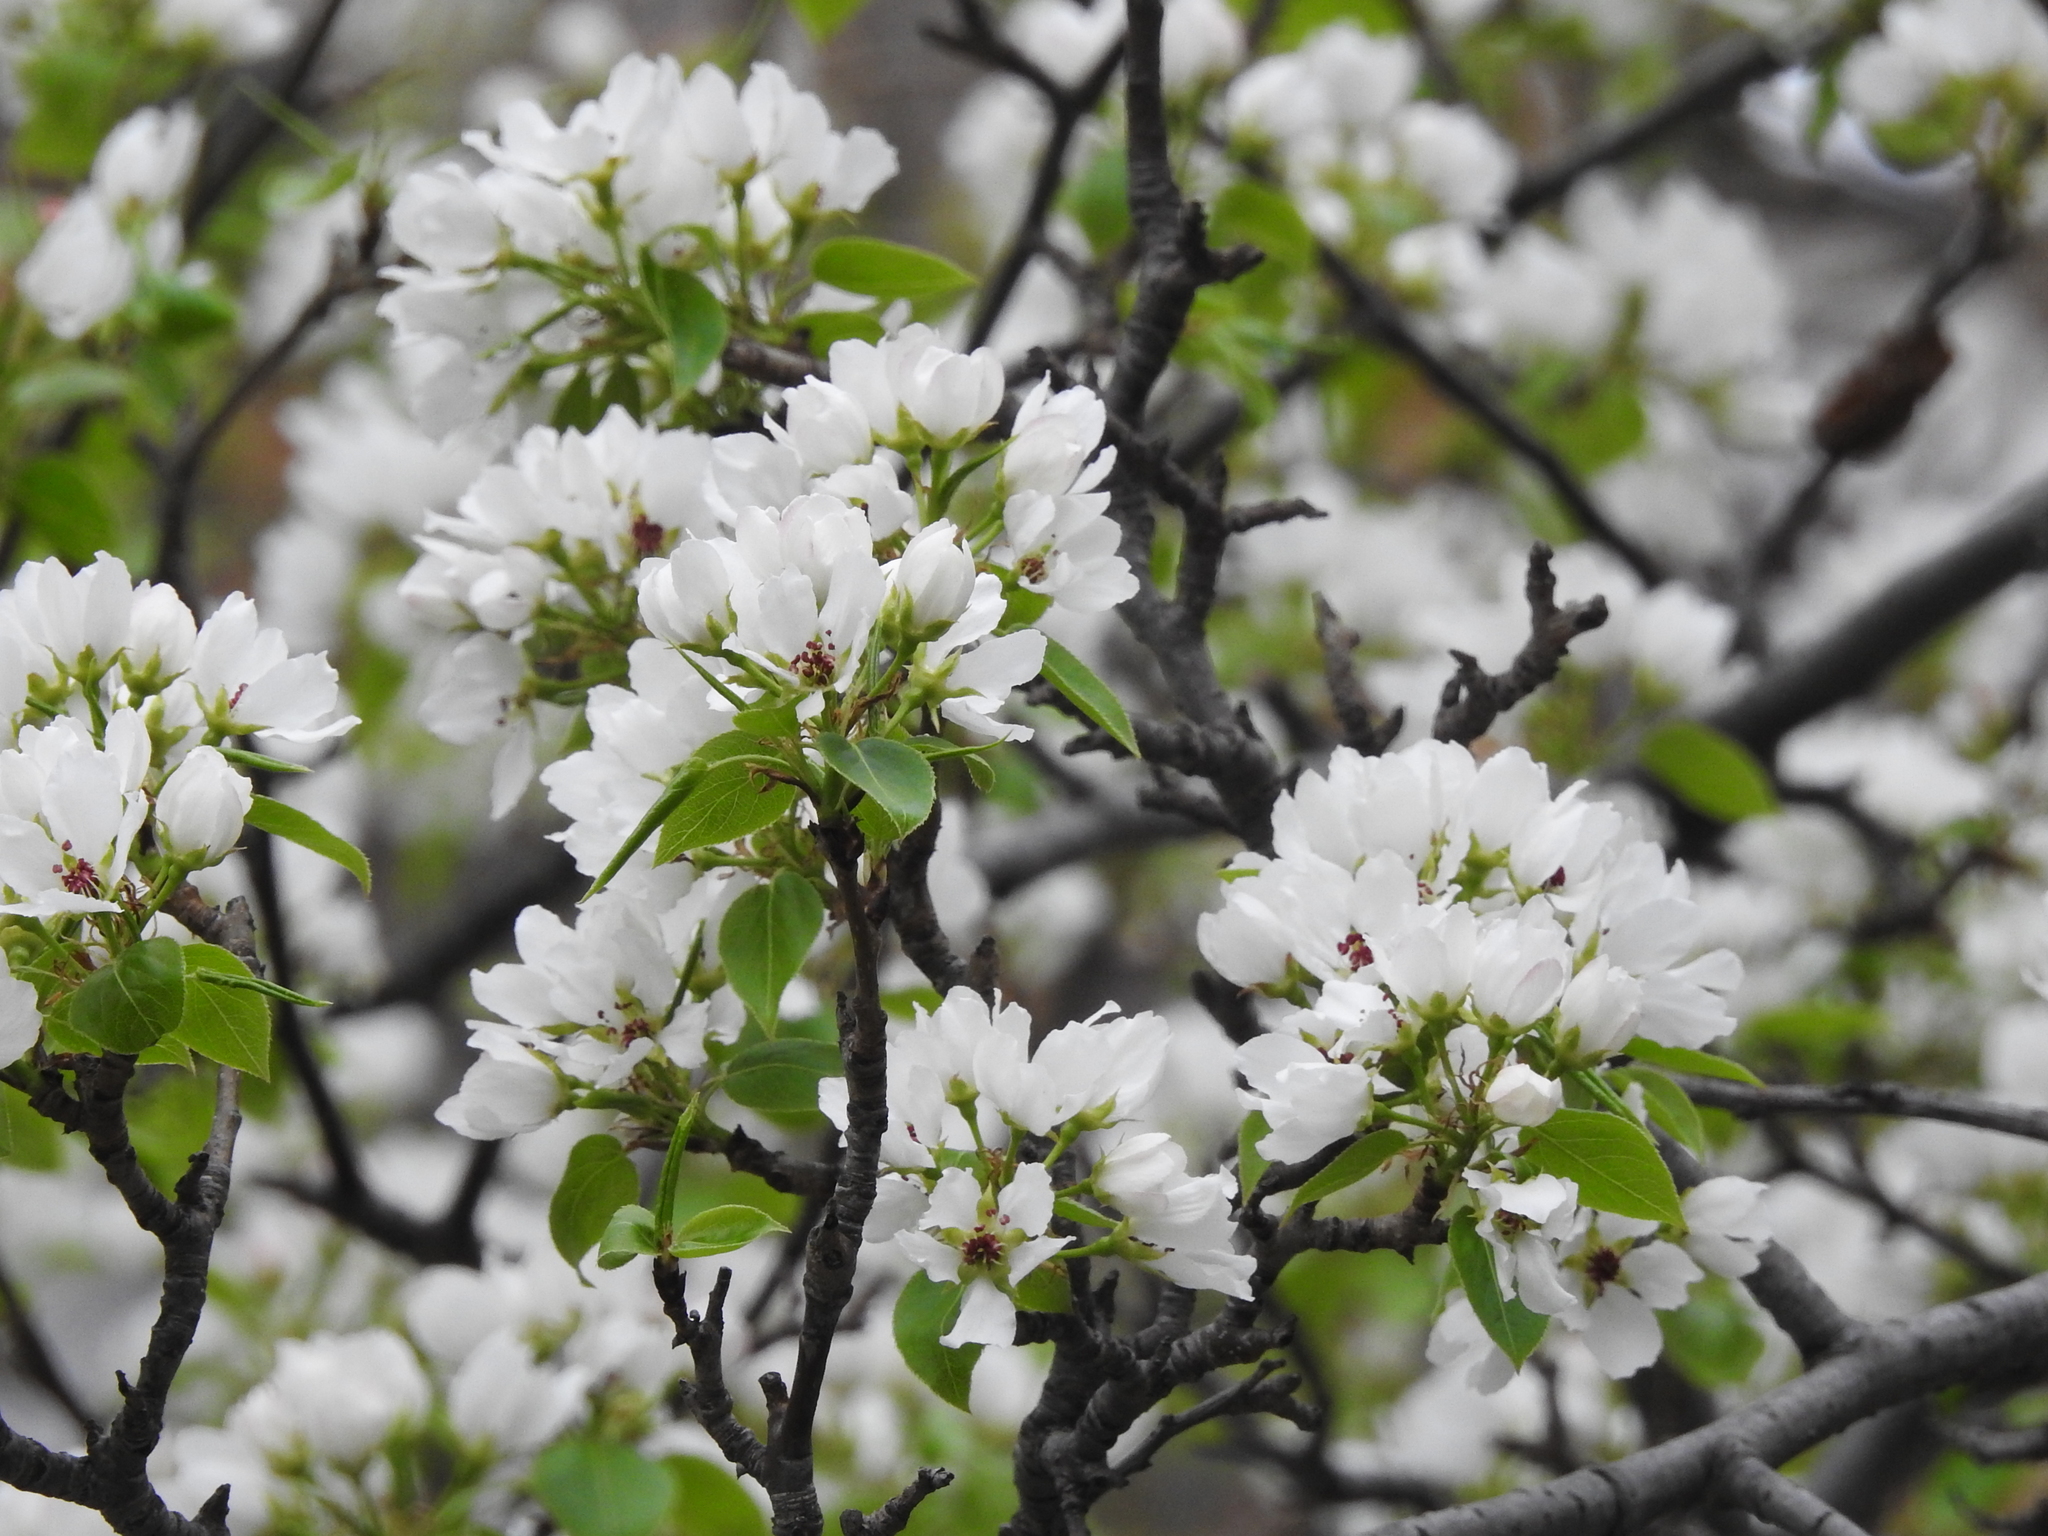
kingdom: Plantae
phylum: Tracheophyta
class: Magnoliopsida
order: Rosales
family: Rosaceae
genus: Malus
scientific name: Malus baccata
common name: Siberian crab
